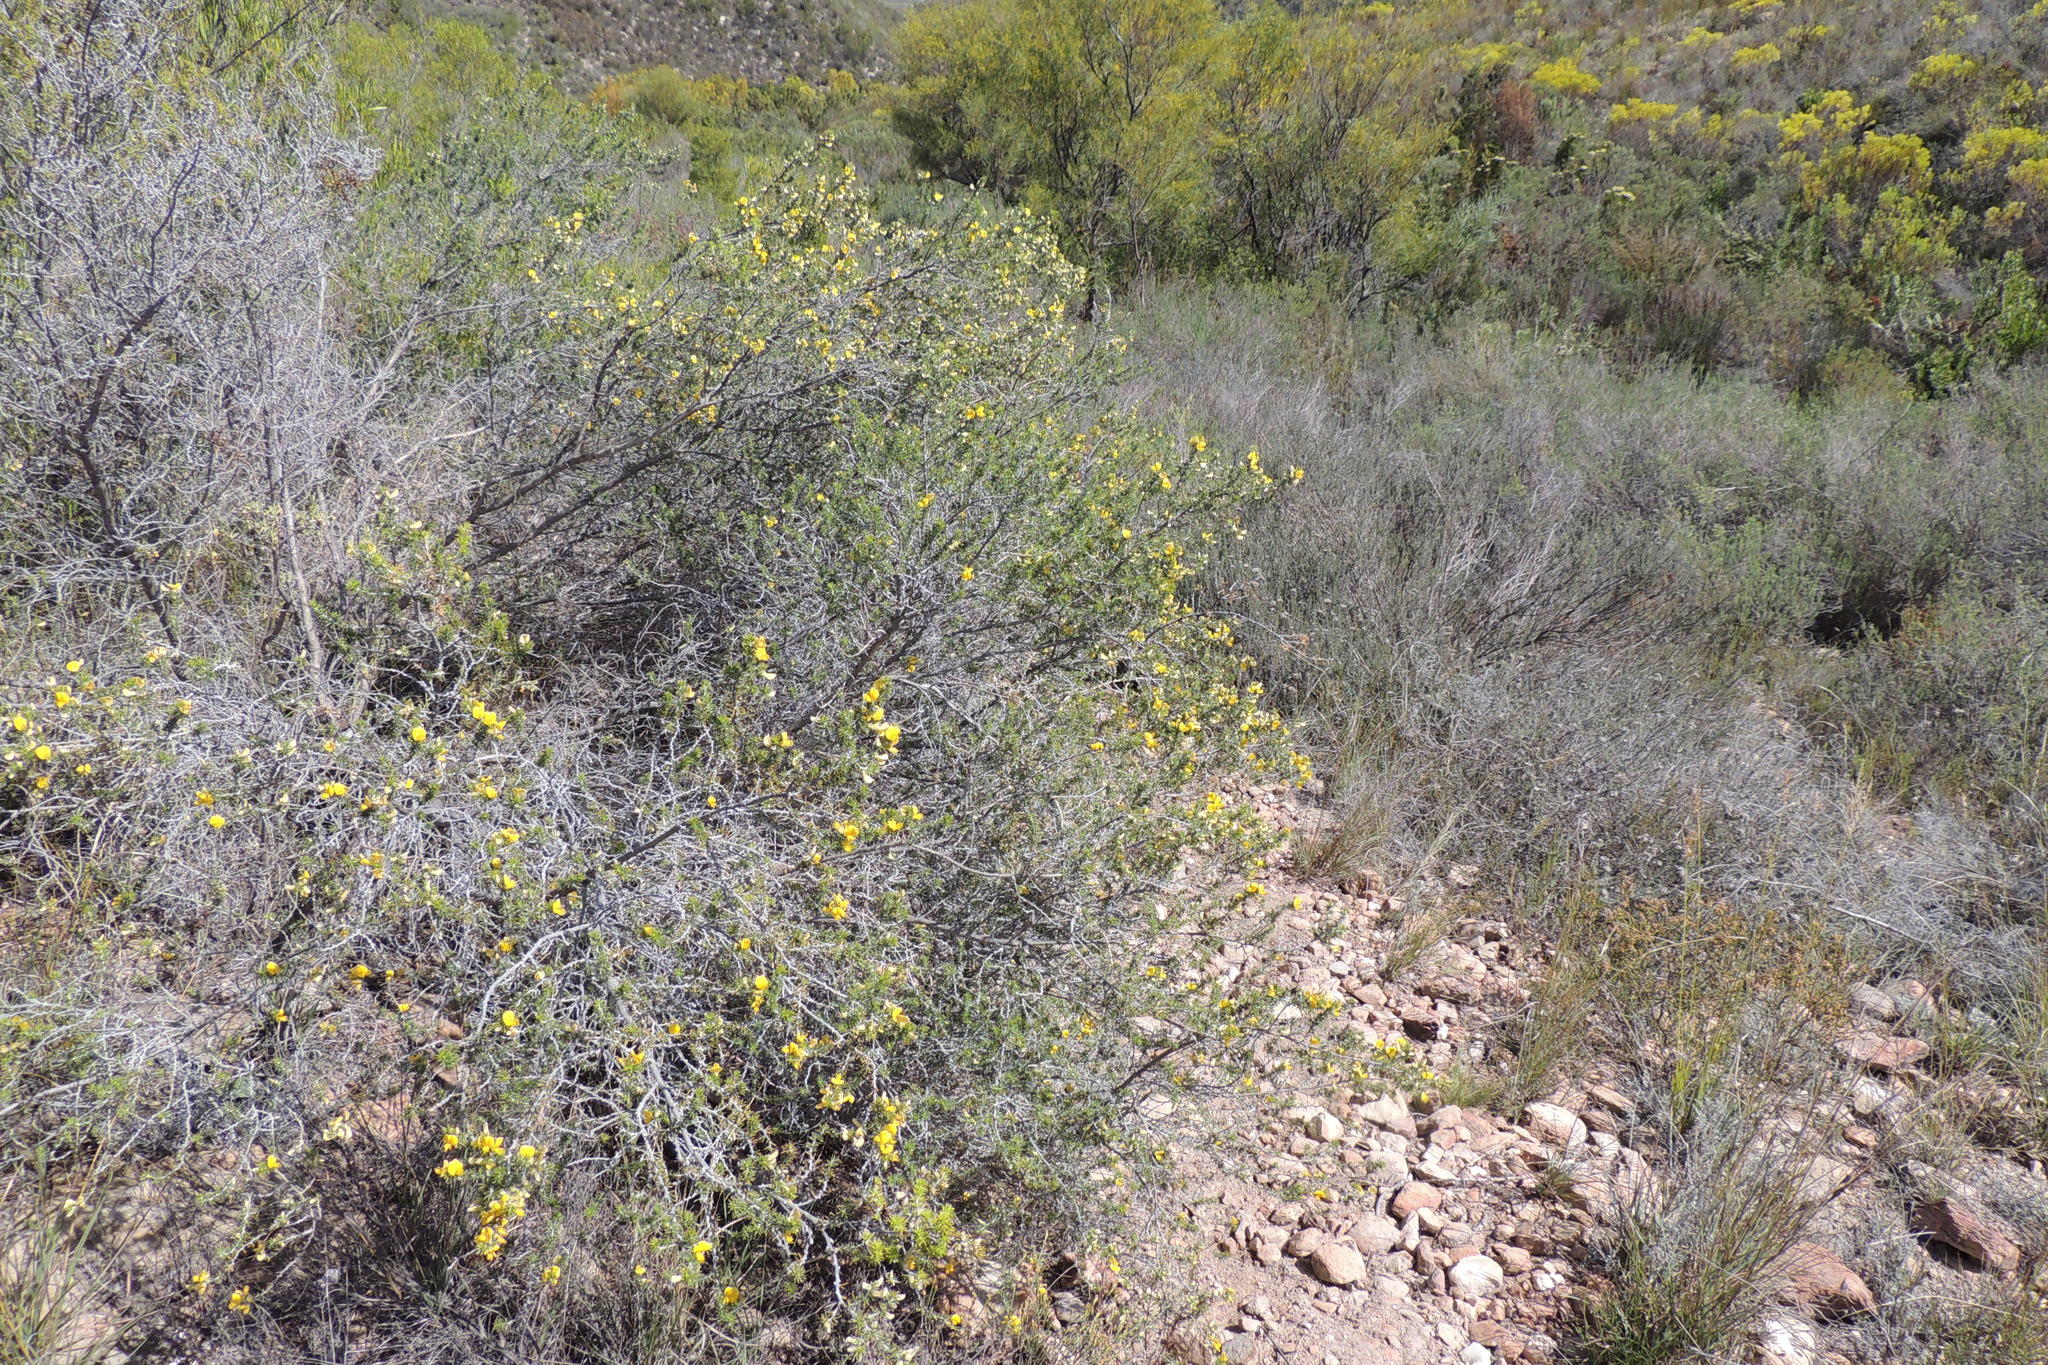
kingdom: Plantae
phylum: Tracheophyta
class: Magnoliopsida
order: Fabales
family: Fabaceae
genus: Aspalathus
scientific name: Aspalathus hirta
